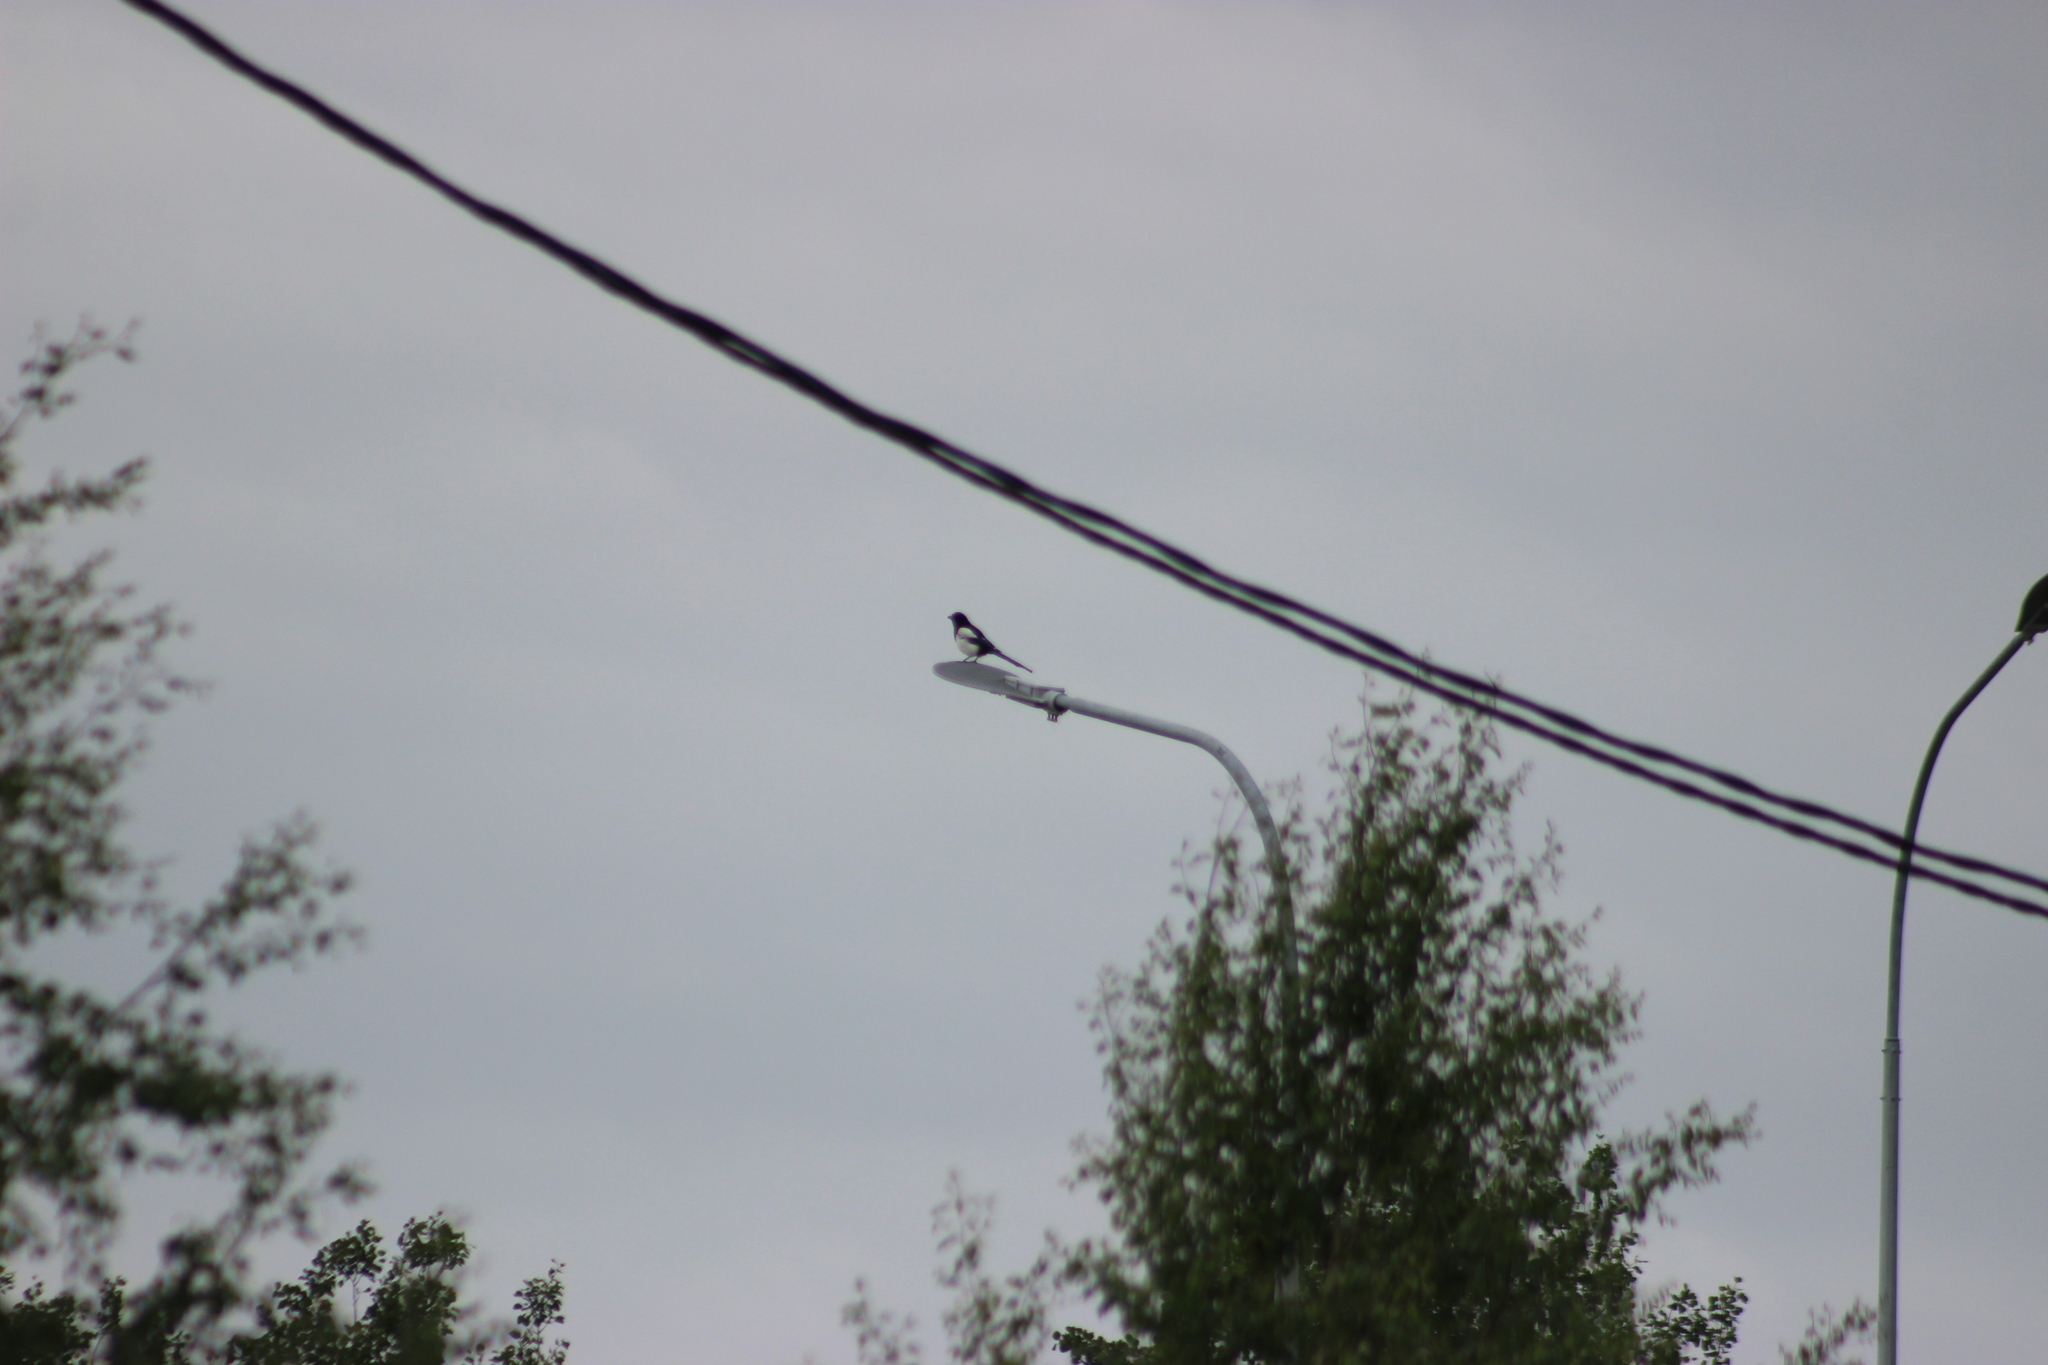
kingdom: Animalia
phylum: Chordata
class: Aves
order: Passeriformes
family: Corvidae
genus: Pica
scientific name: Pica pica
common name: Eurasian magpie
